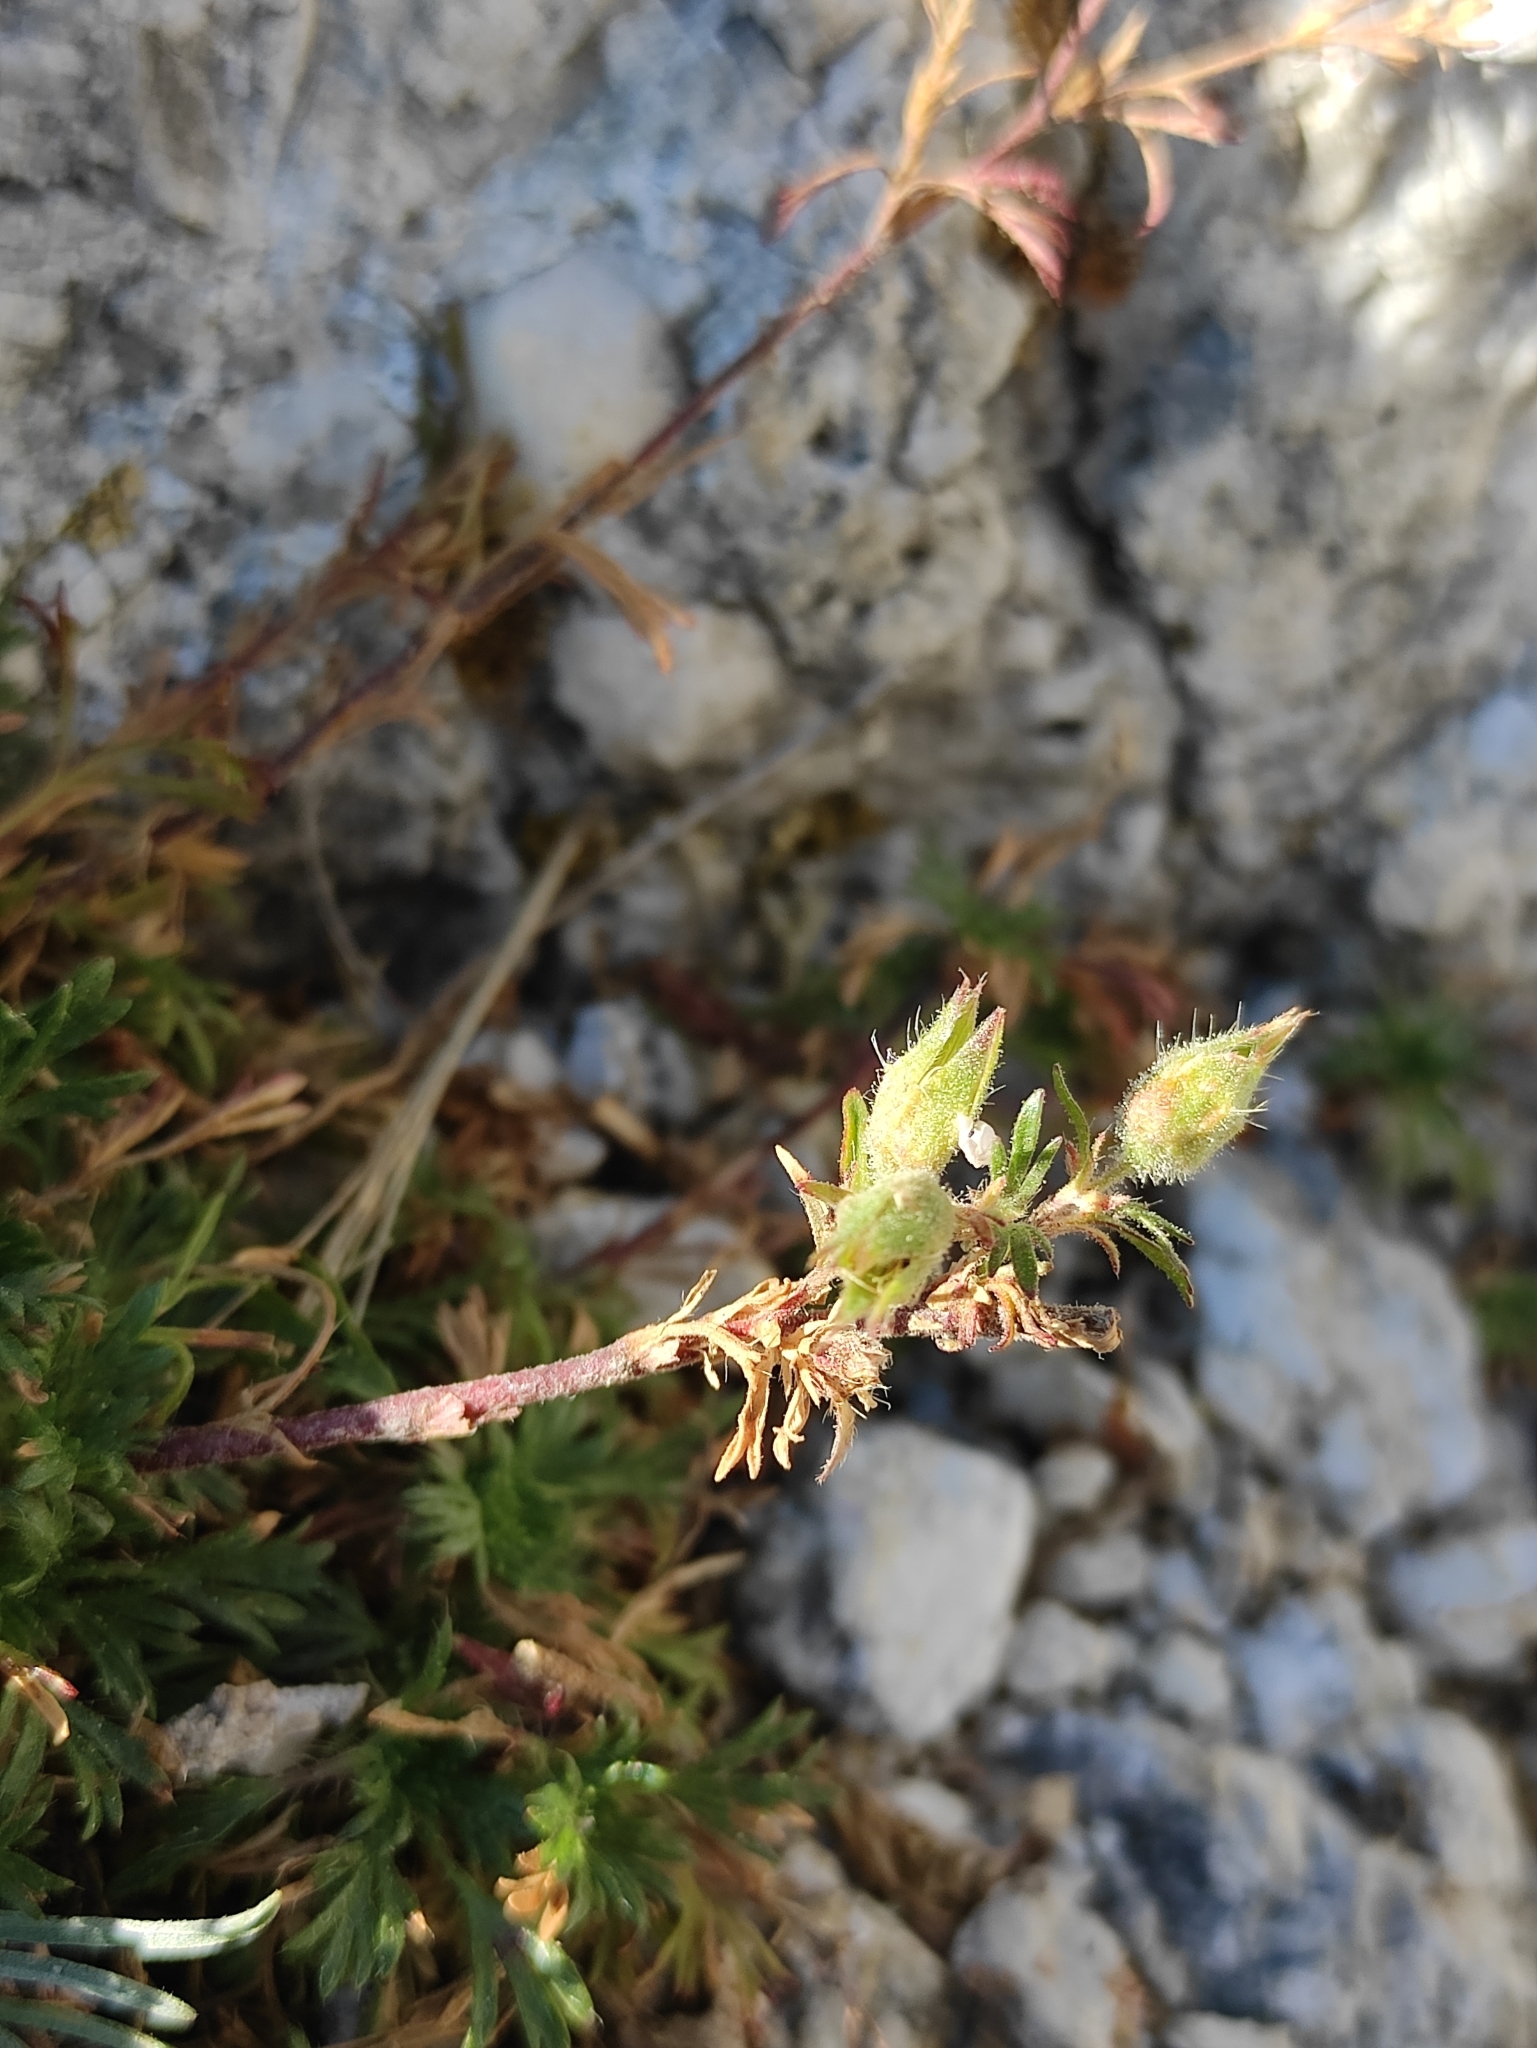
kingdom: Plantae
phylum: Tracheophyta
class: Magnoliopsida
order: Rosales
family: Rosaceae
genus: Chamaerhodos
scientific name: Chamaerhodos grandiflora
